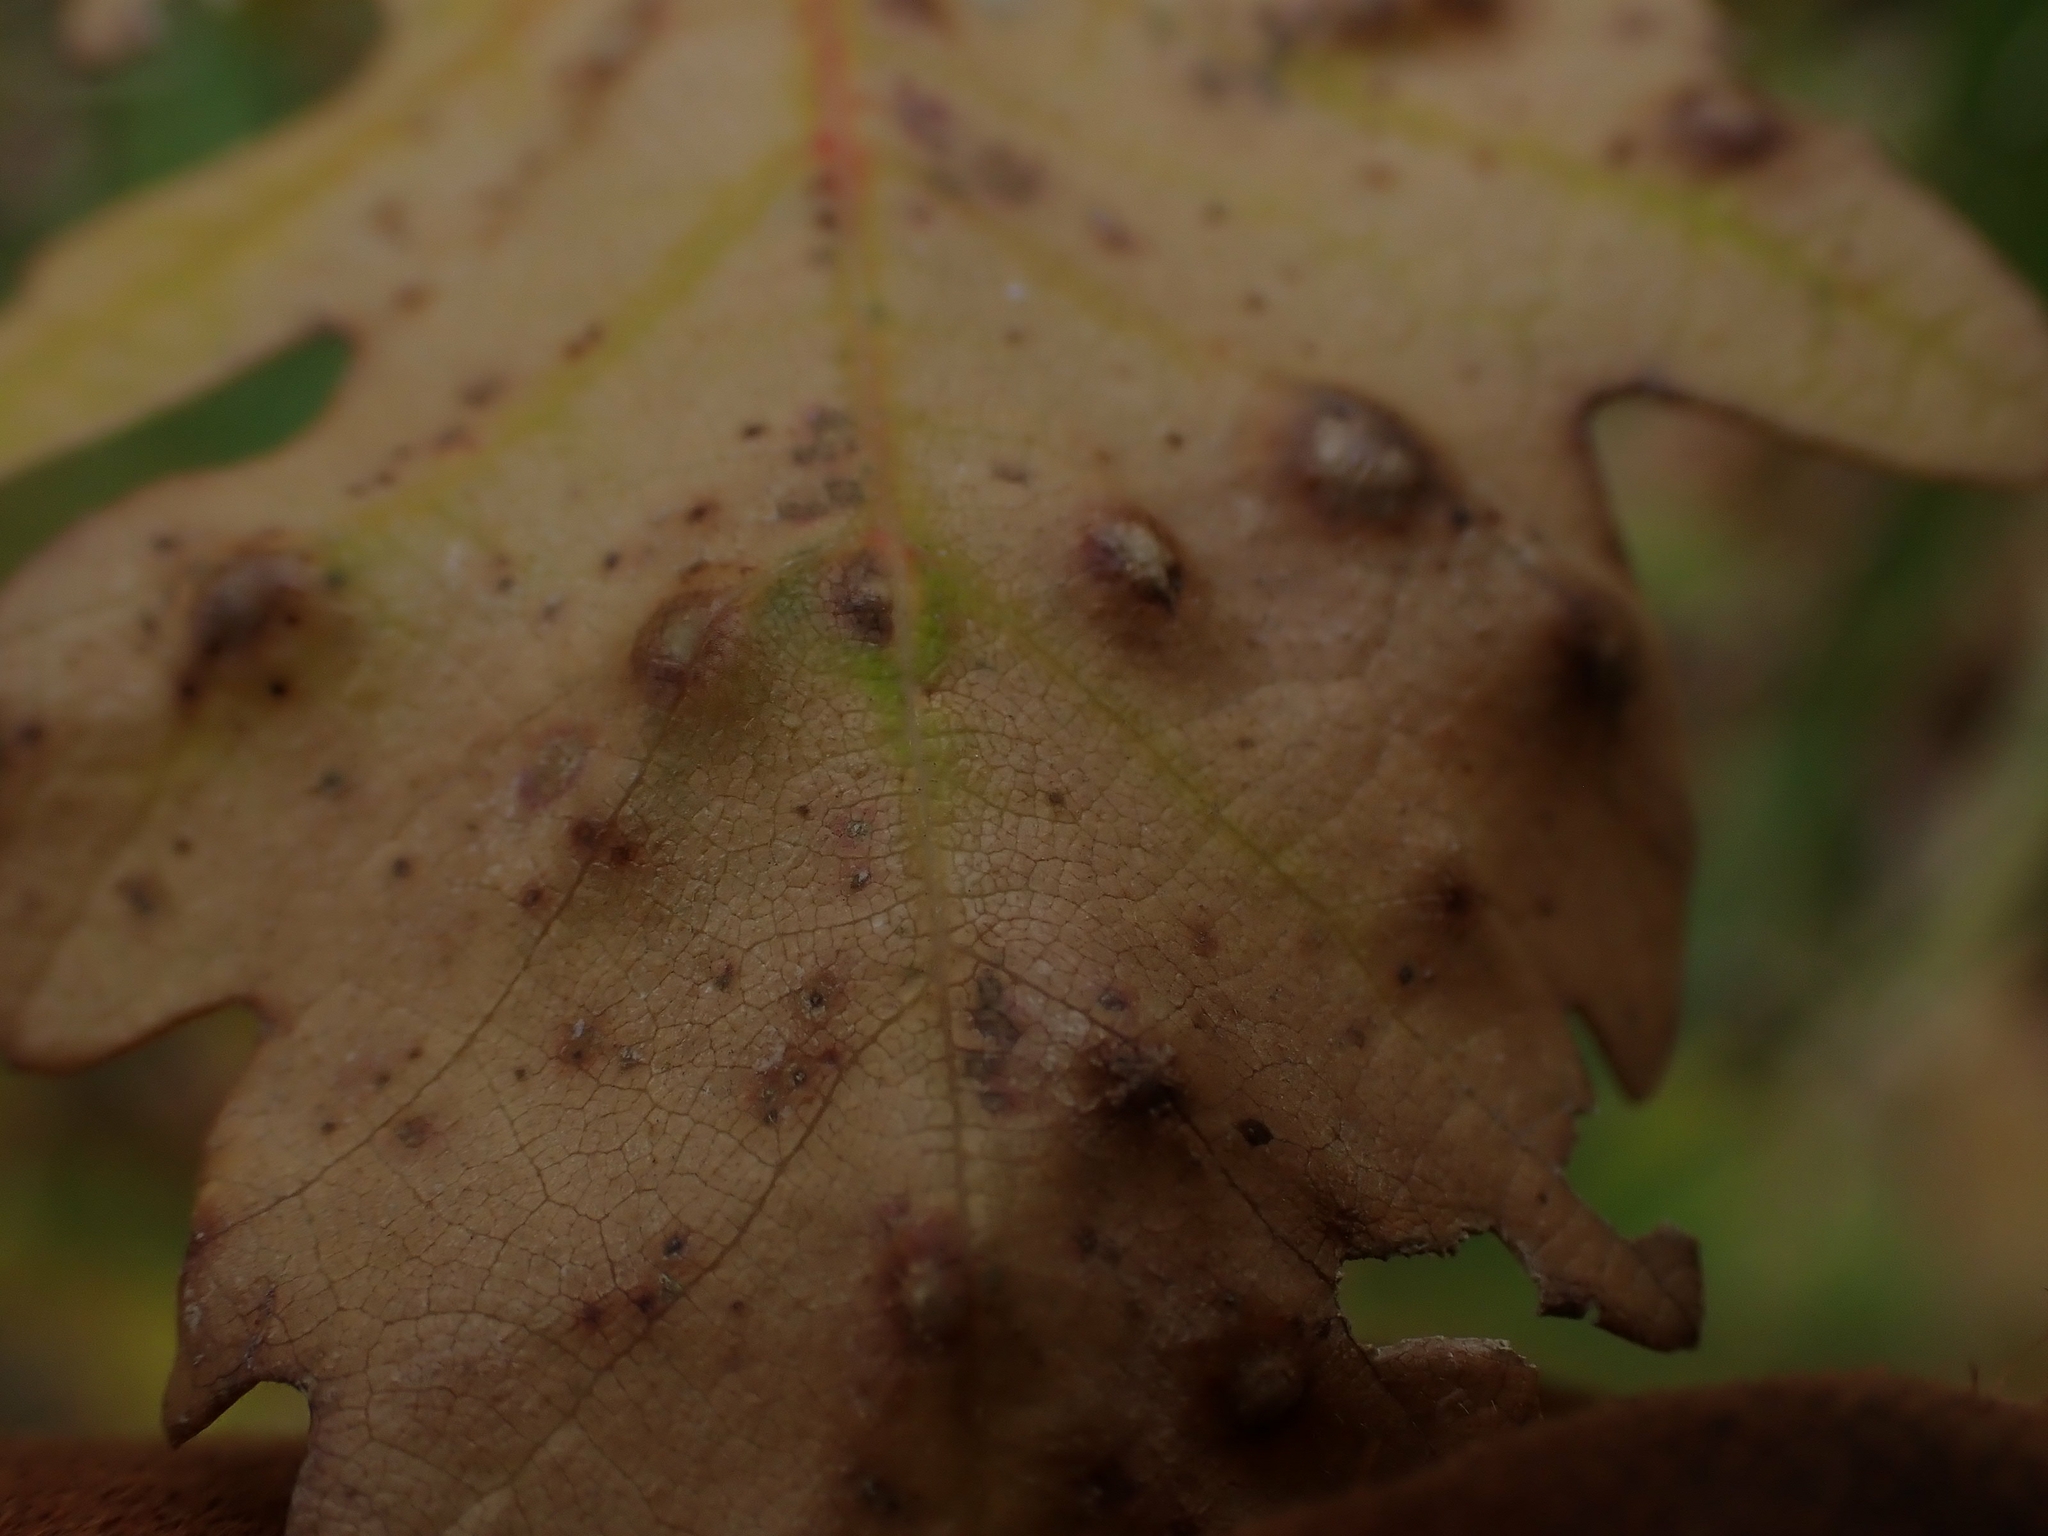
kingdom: Animalia
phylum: Arthropoda
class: Insecta
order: Hymenoptera
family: Cynipidae
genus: Neuroterus
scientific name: Neuroterus floccosus
